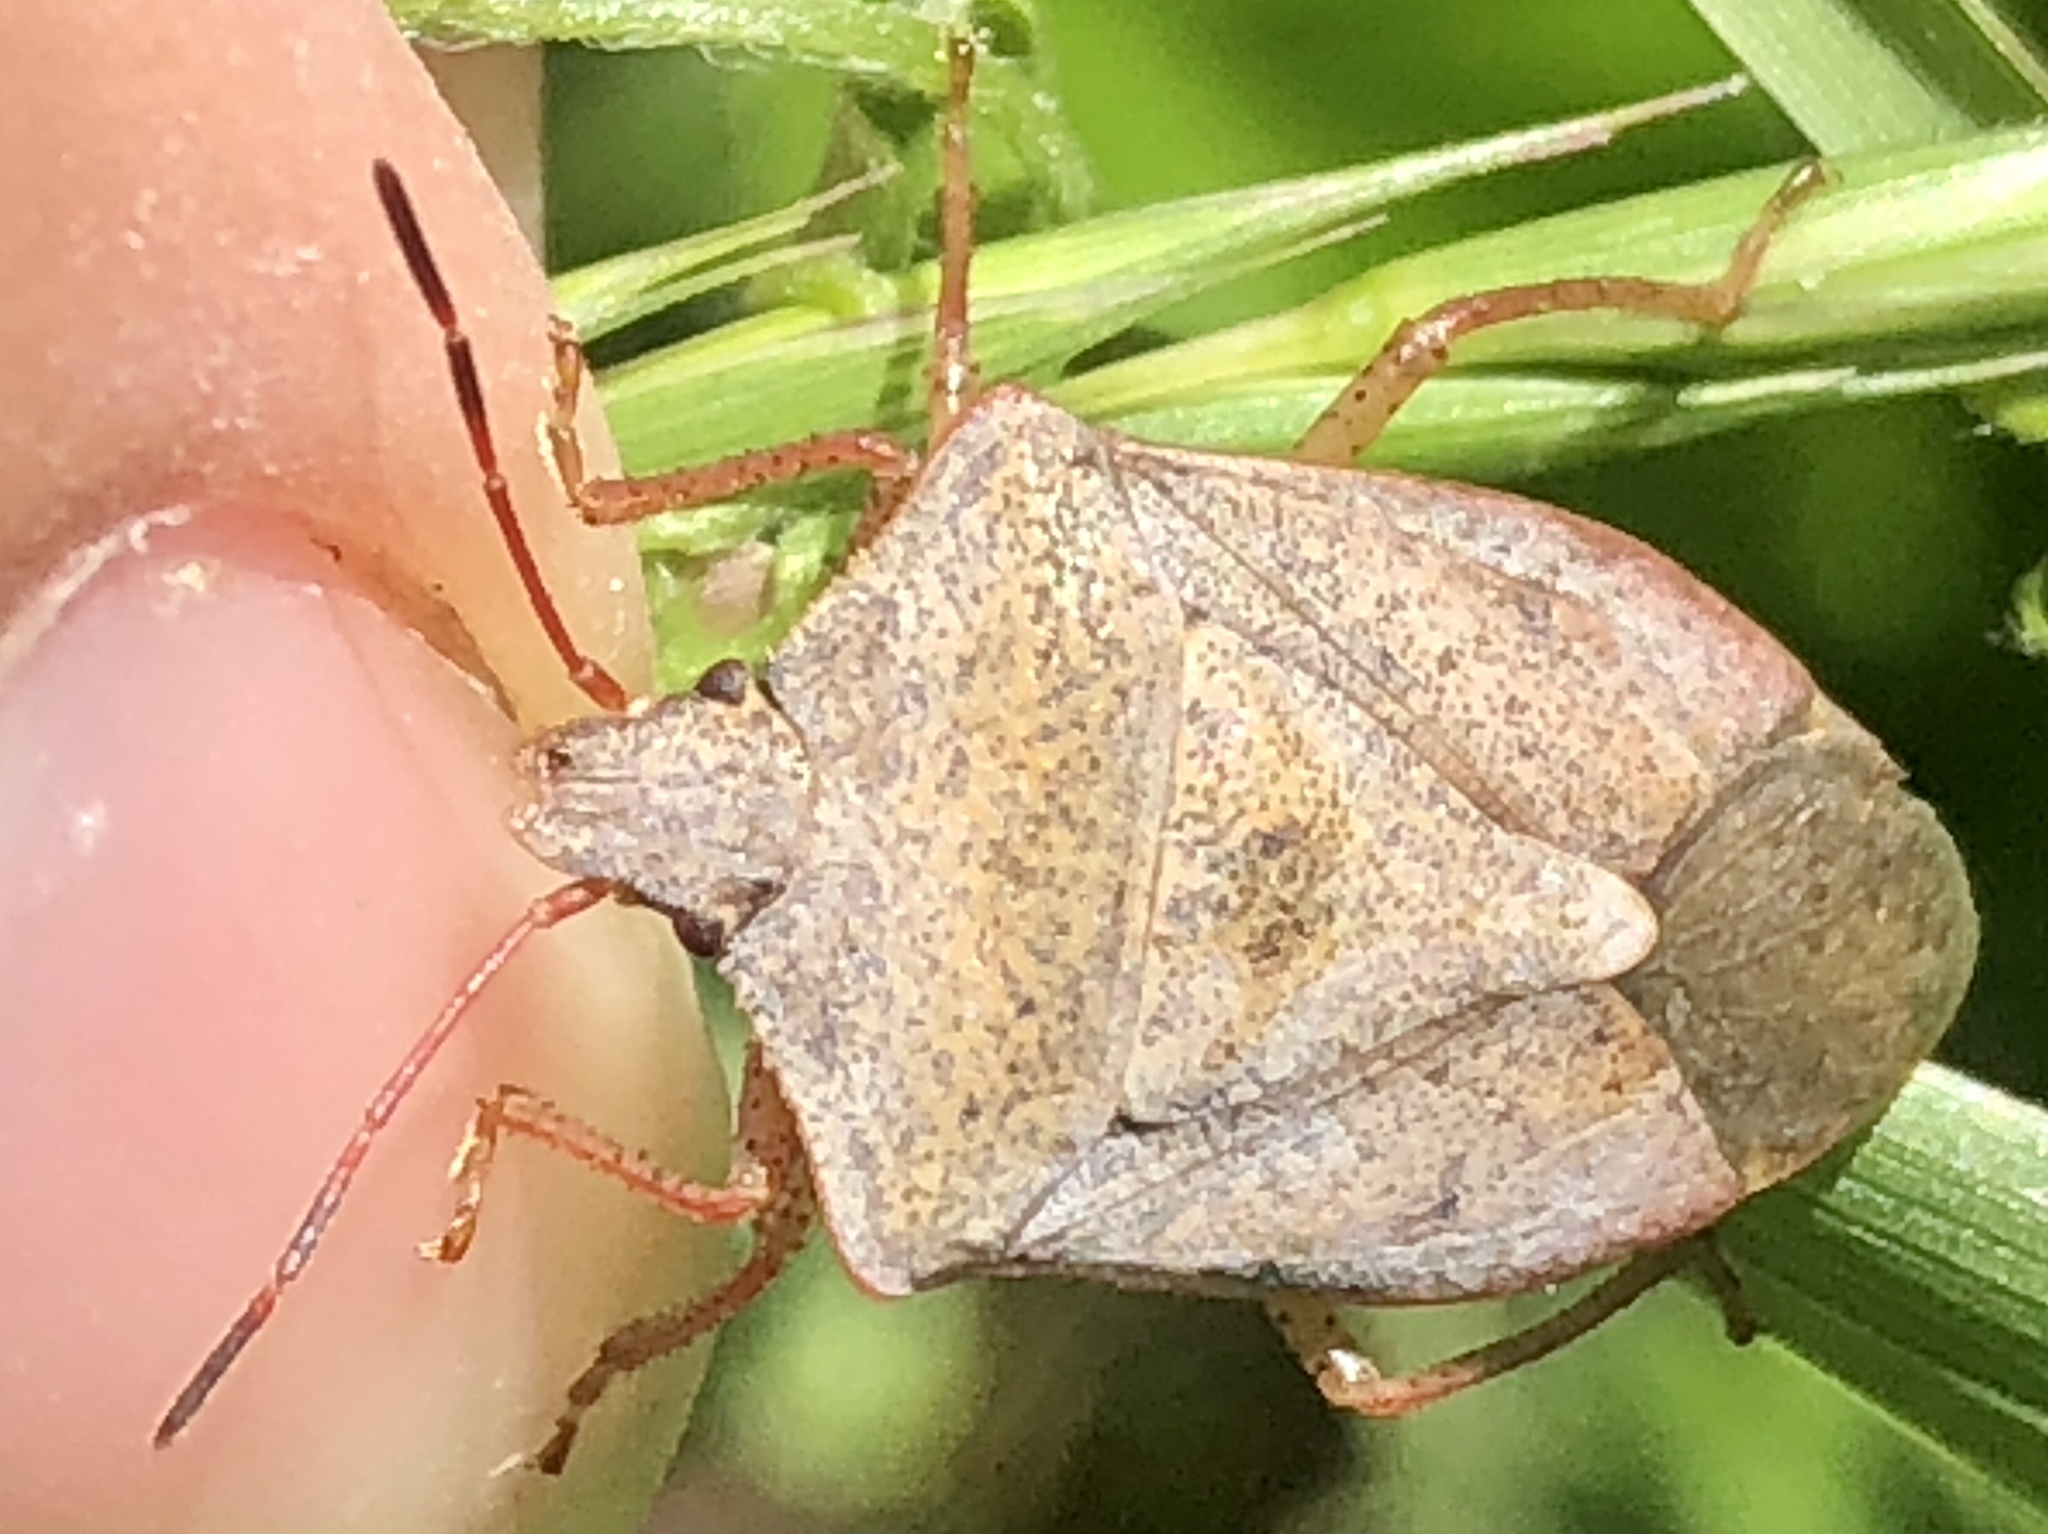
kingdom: Animalia
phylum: Arthropoda
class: Insecta
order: Hemiptera
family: Pentatomidae
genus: Euschistus
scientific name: Euschistus servus
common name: Brown stink bug
